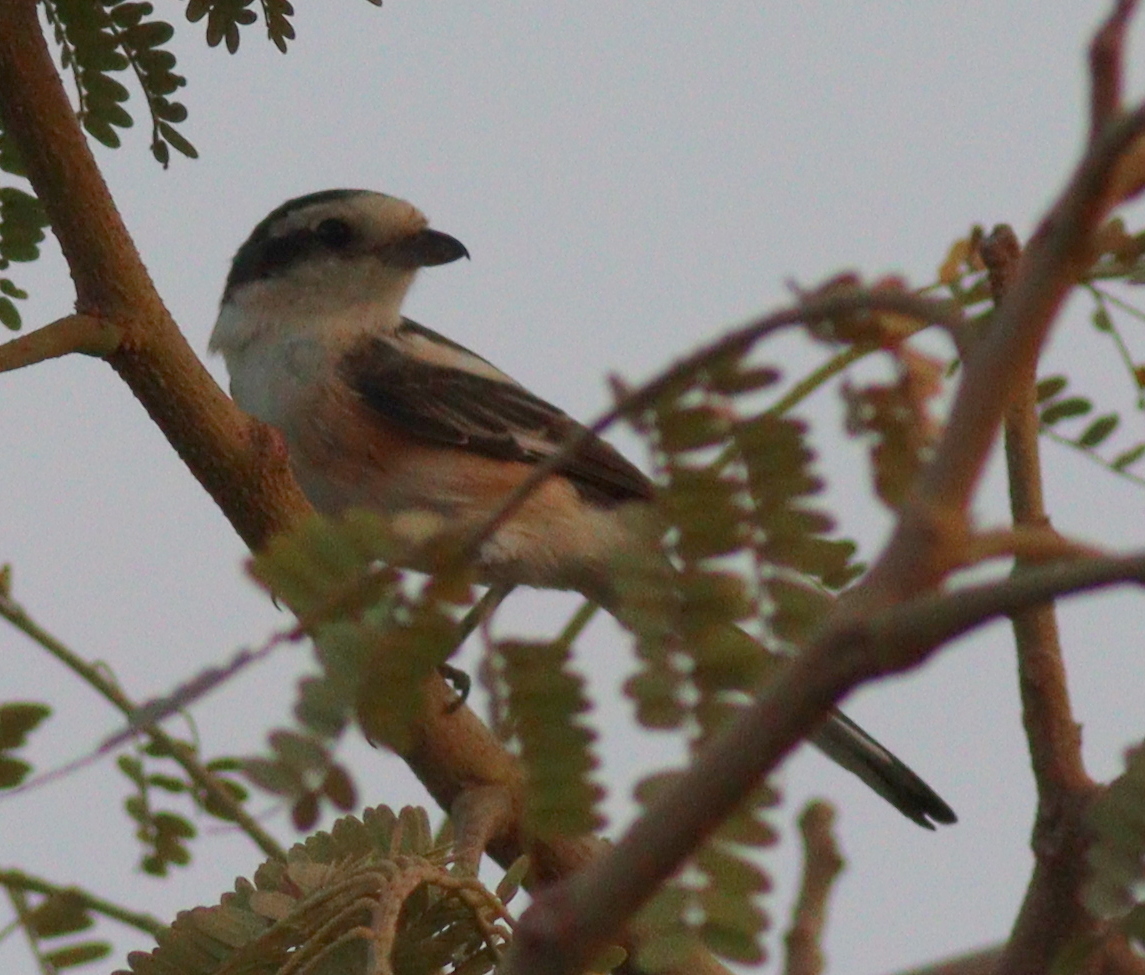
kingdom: Animalia
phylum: Chordata
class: Aves
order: Passeriformes
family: Laniidae
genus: Lanius
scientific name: Lanius nubicus
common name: Masked shrike
